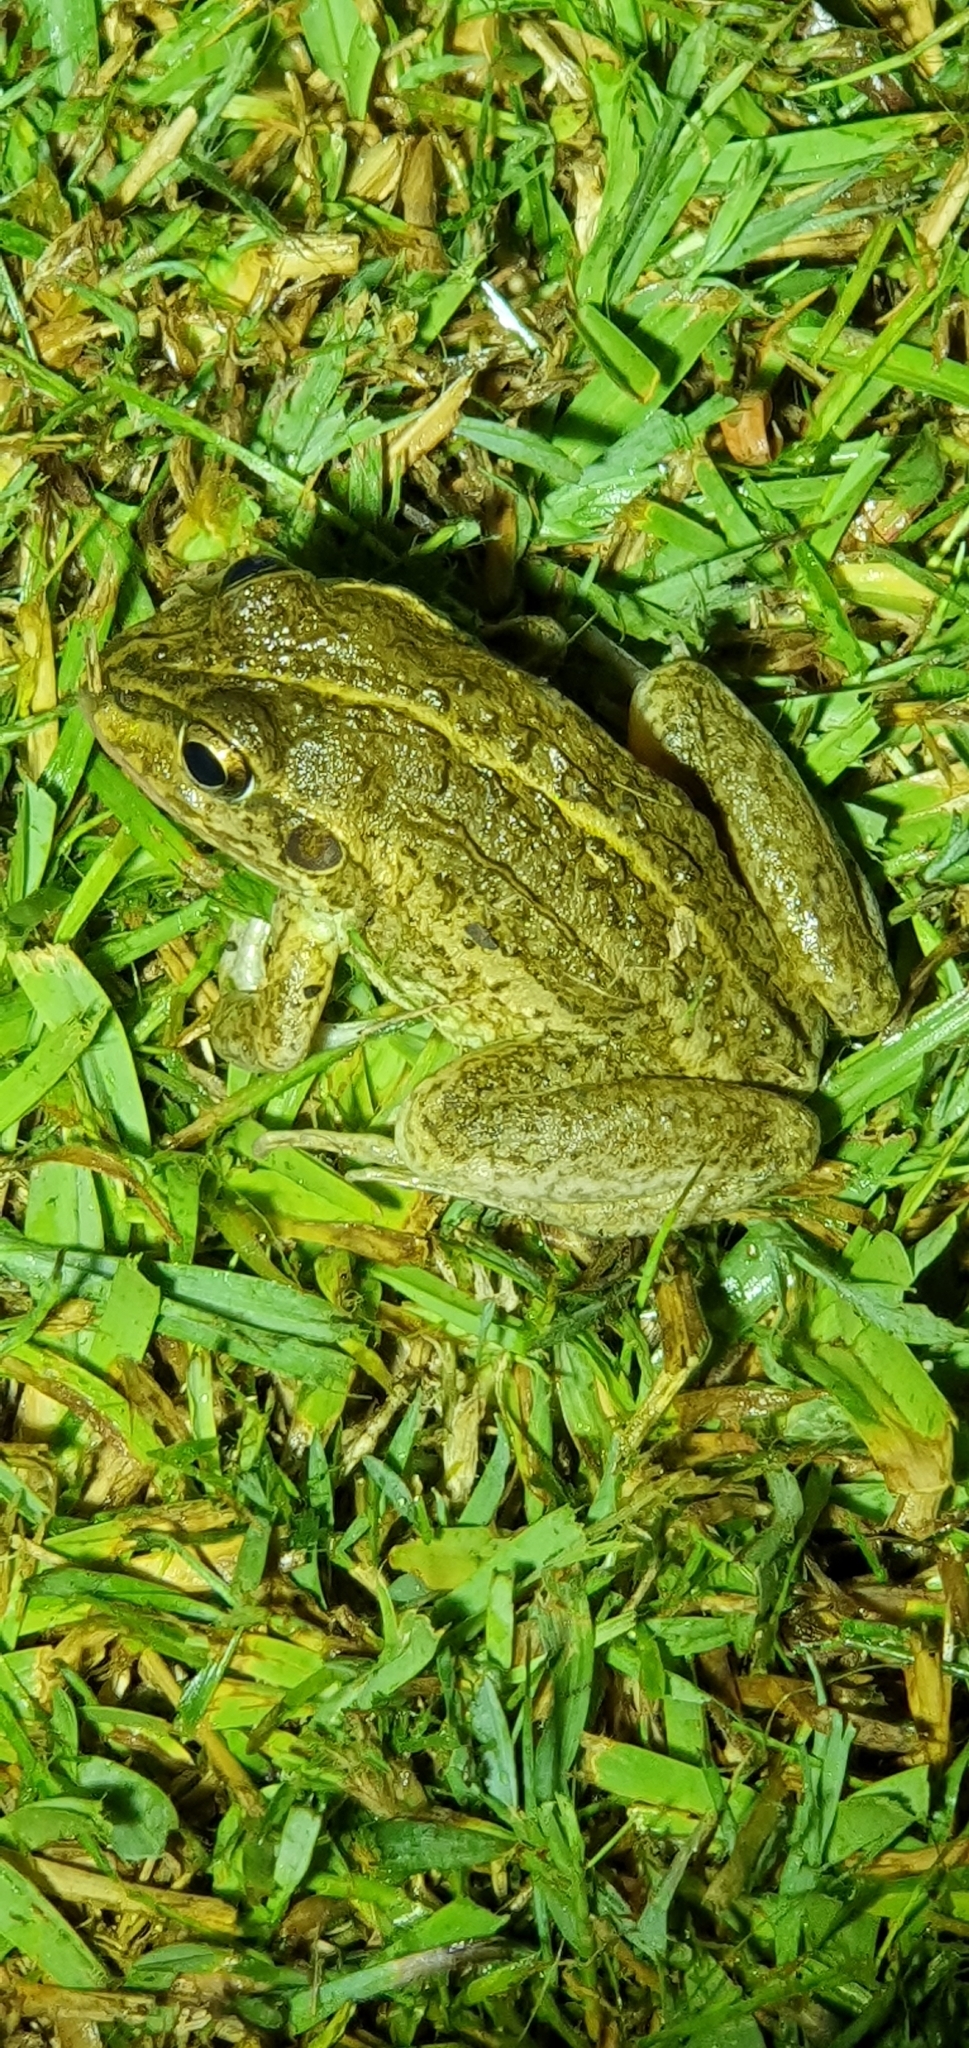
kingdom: Animalia
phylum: Chordata
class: Amphibia
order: Anura
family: Pelodryadidae
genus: Ranoidea
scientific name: Ranoidea alboguttata
